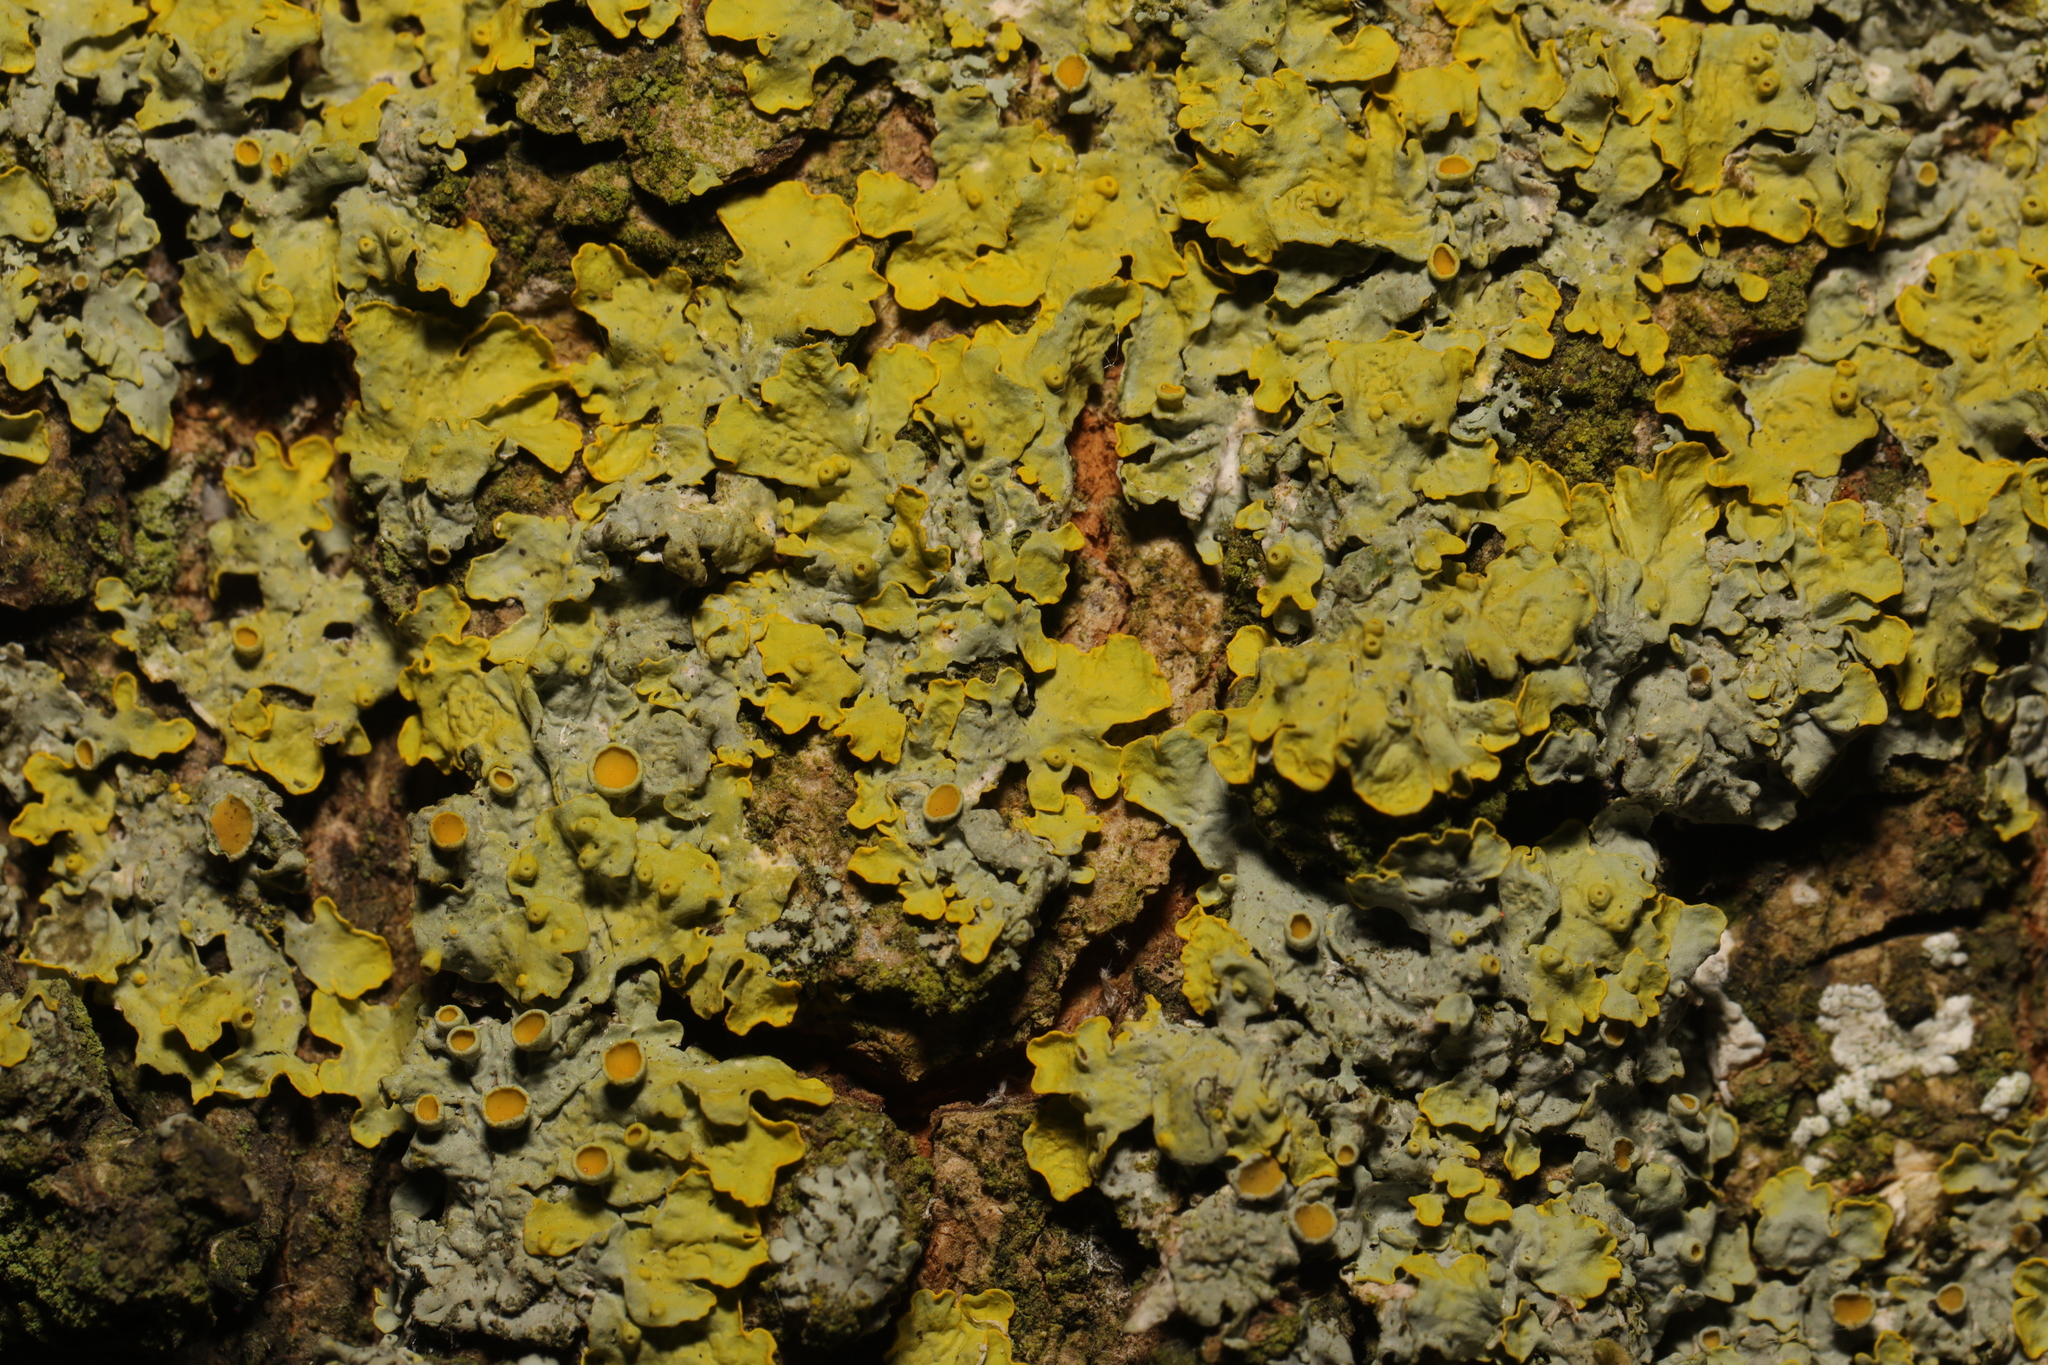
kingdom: Fungi
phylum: Ascomycota
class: Lecanoromycetes
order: Teloschistales
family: Teloschistaceae
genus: Xanthoria
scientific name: Xanthoria parietina
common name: Common orange lichen
